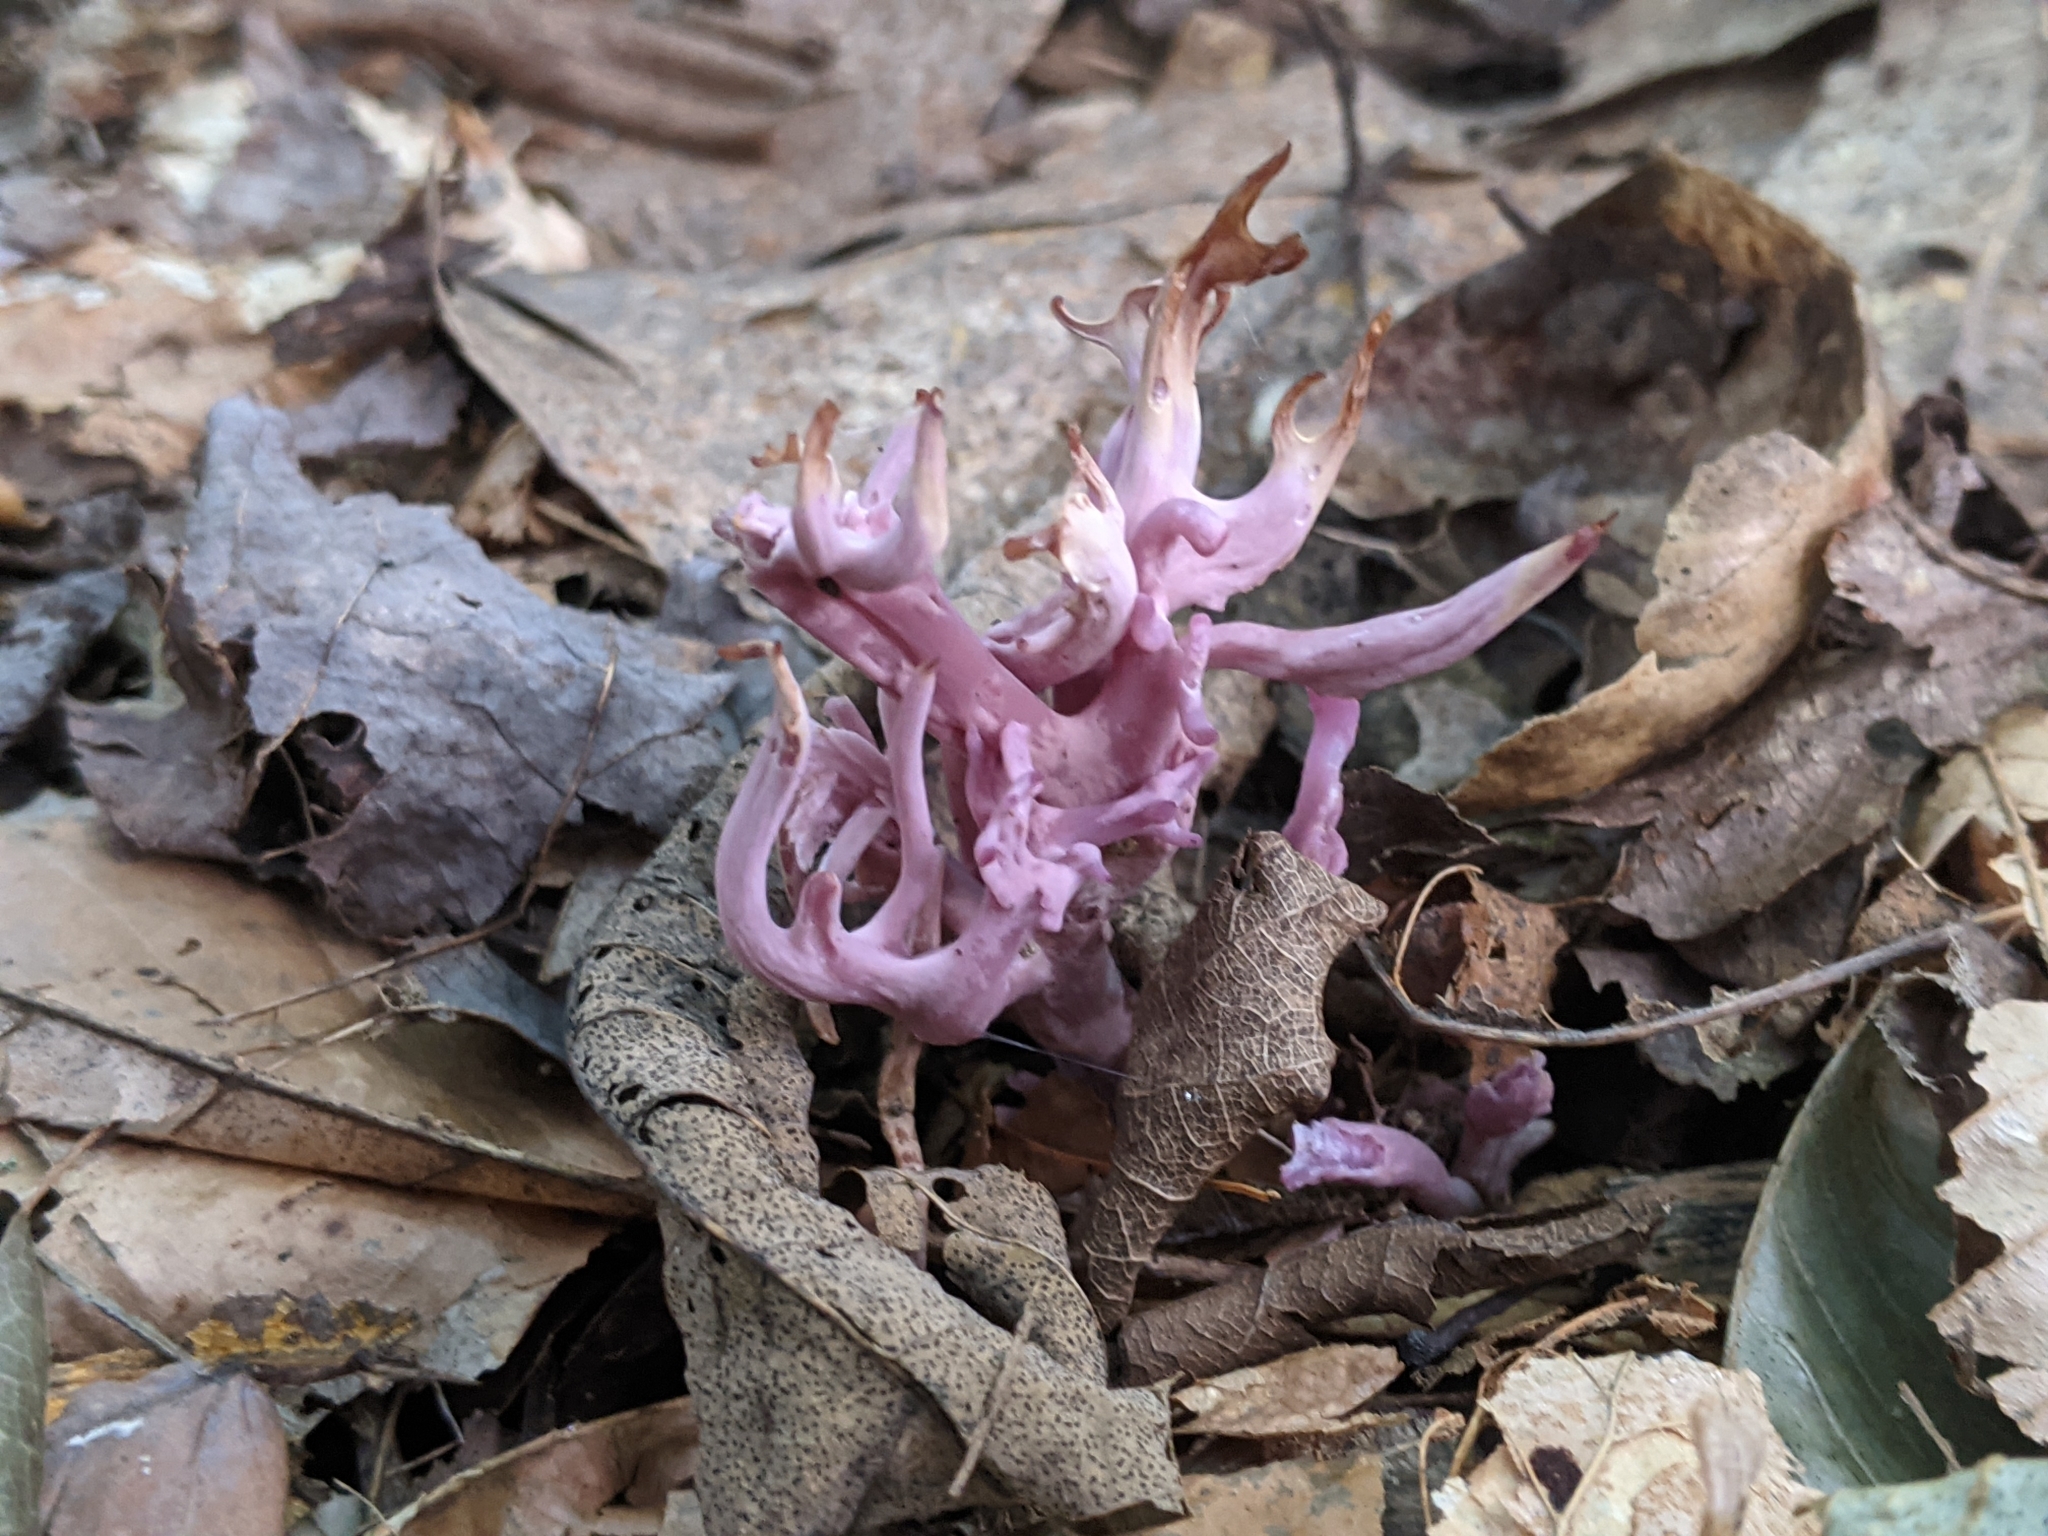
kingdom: Fungi
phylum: Basidiomycota
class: Agaricomycetes
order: Agaricales
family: Clavariaceae
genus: Clavaria
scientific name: Clavaria zollingeri
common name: Violet coral
